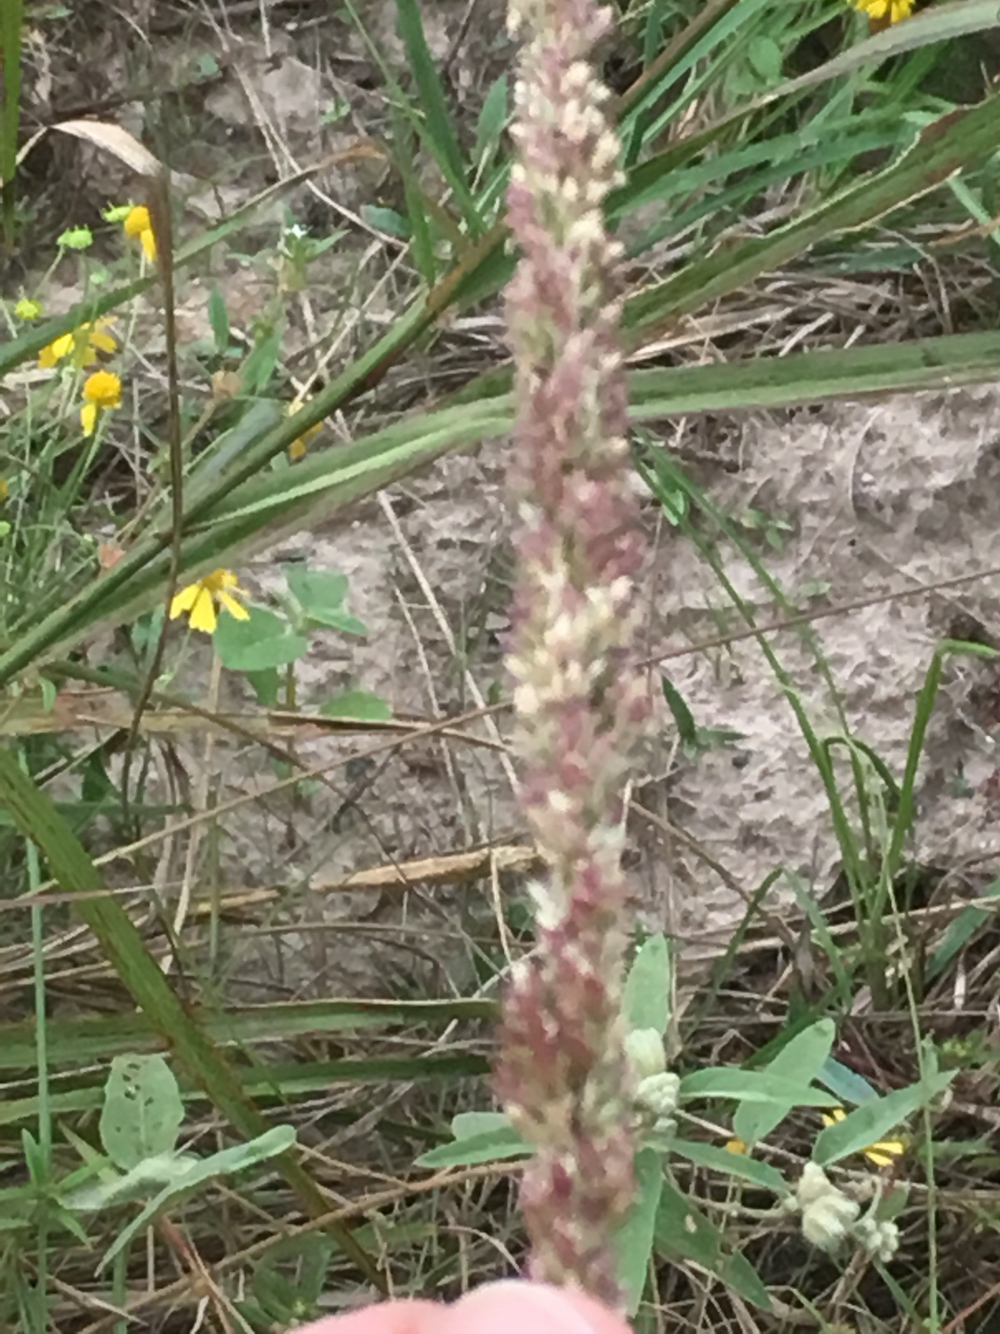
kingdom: Plantae
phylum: Tracheophyta
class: Liliopsida
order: Poales
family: Poaceae
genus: Tridens
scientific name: Tridens strictus
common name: Long-spike tridens
